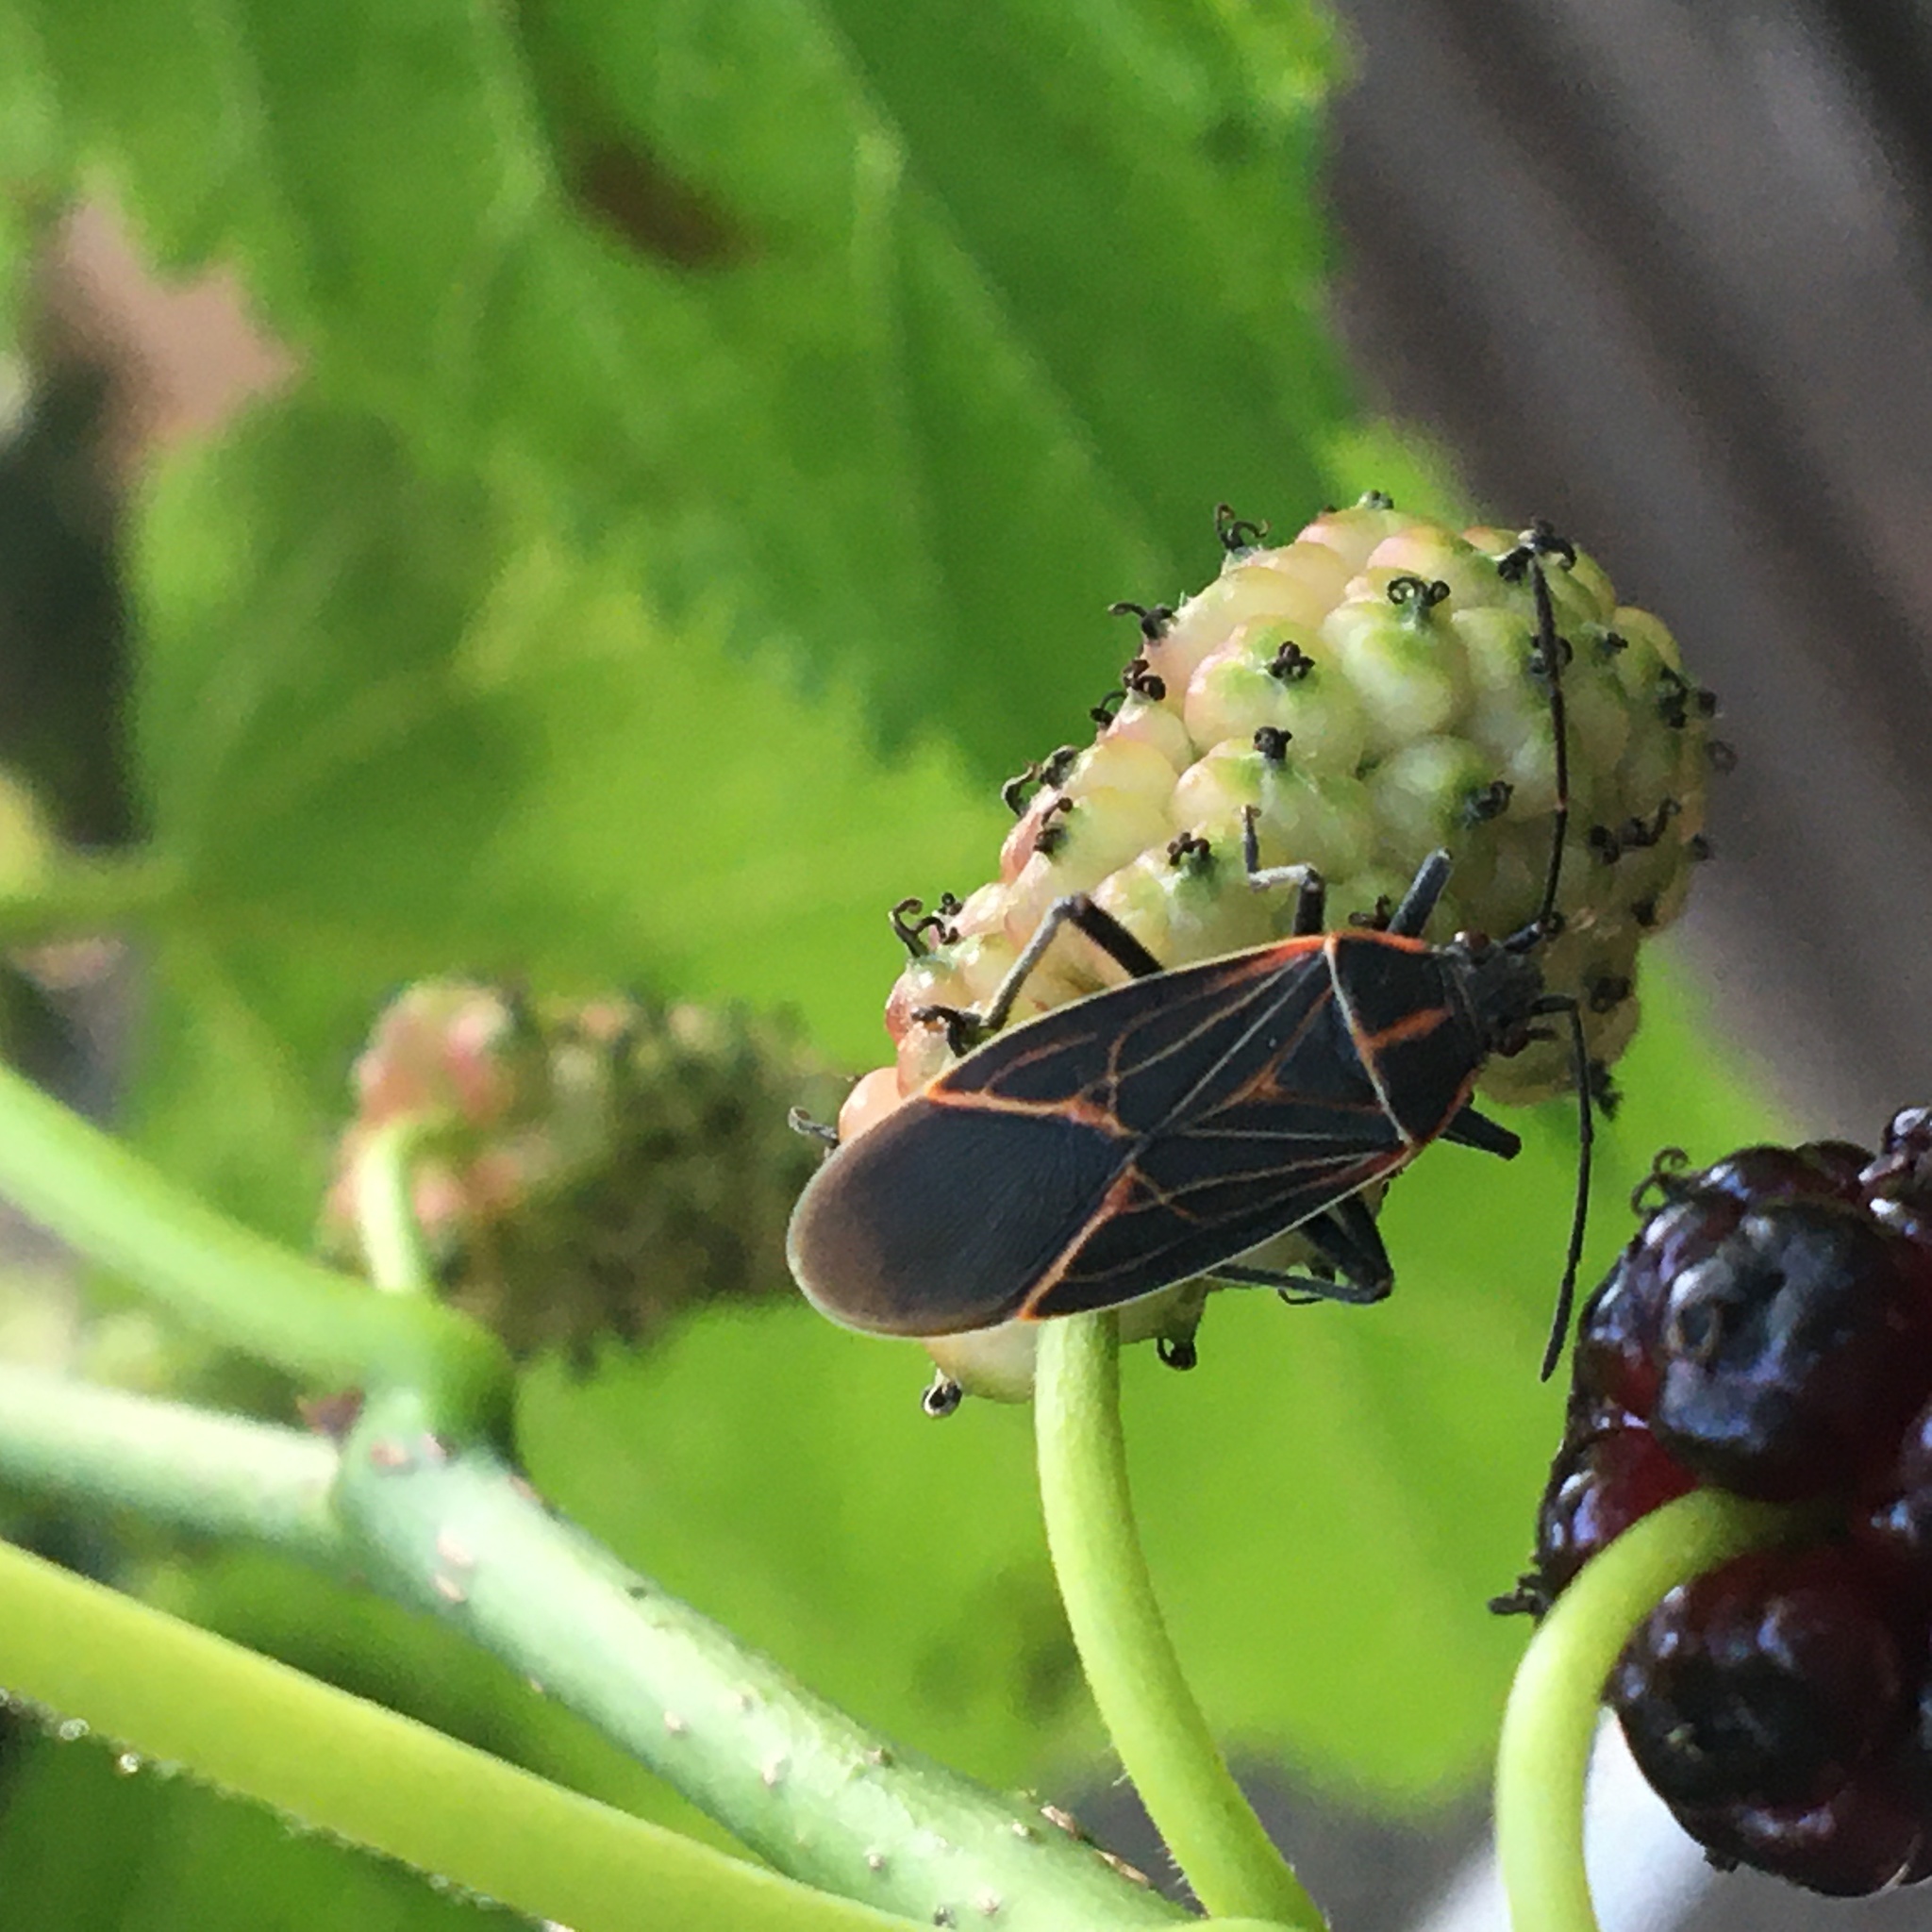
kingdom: Animalia
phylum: Arthropoda
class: Insecta
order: Hemiptera
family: Rhopalidae
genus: Boisea
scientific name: Boisea rubrolineata
